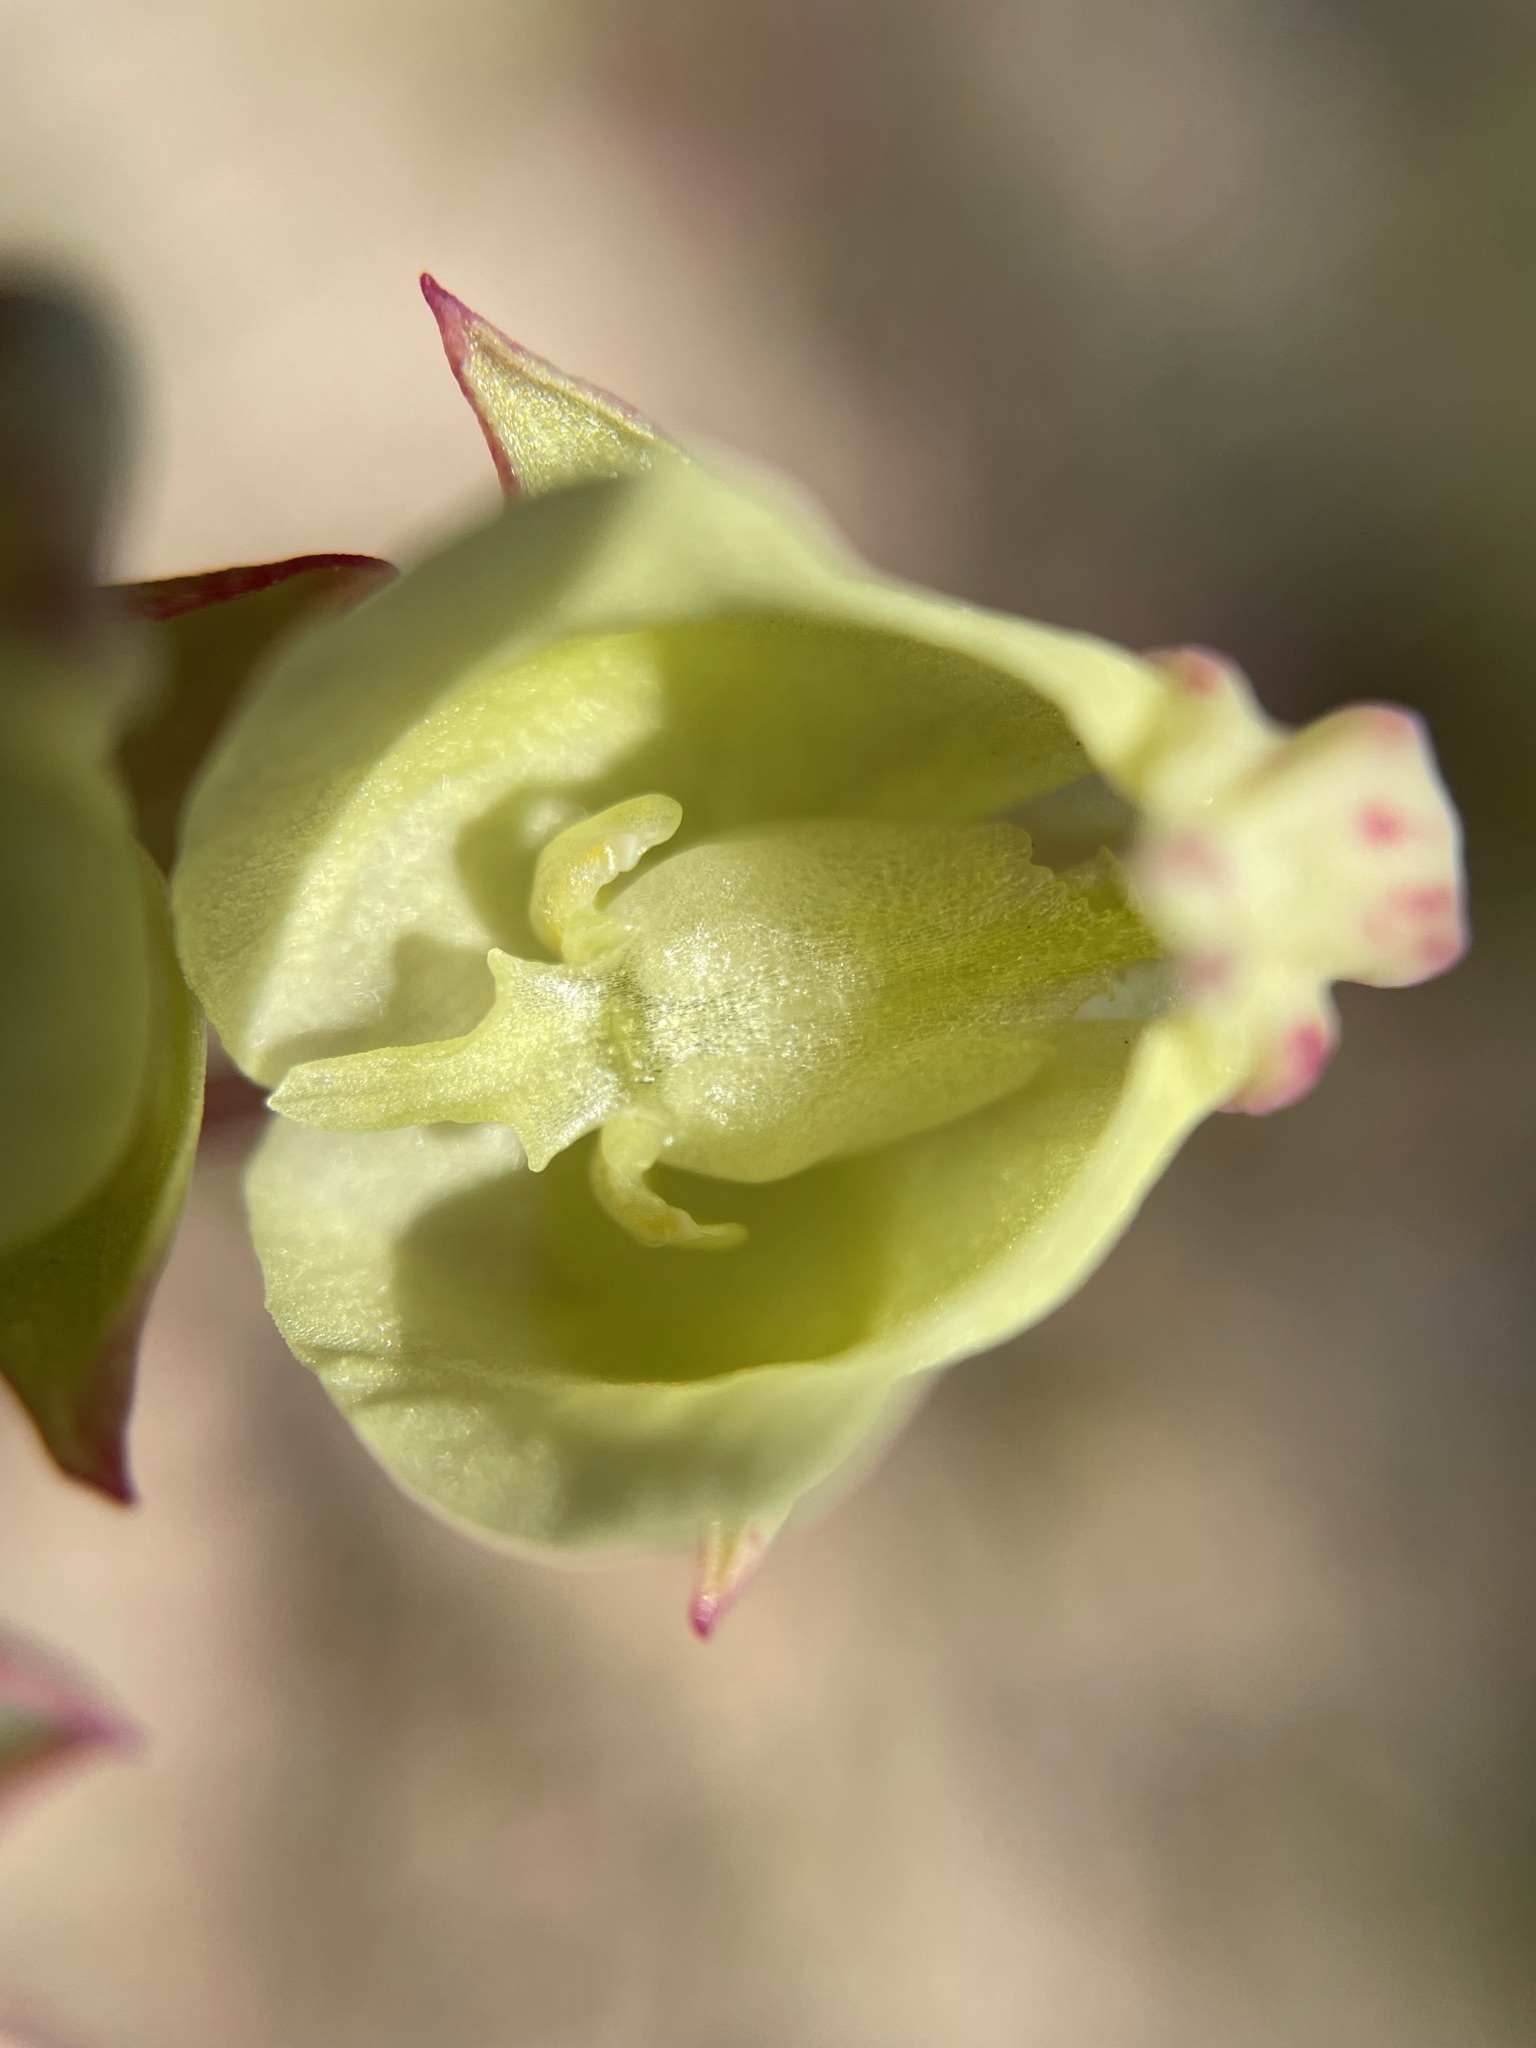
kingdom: Plantae
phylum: Tracheophyta
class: Liliopsida
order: Asparagales
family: Orchidaceae
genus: Pterygodium
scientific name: Pterygodium catholicum
